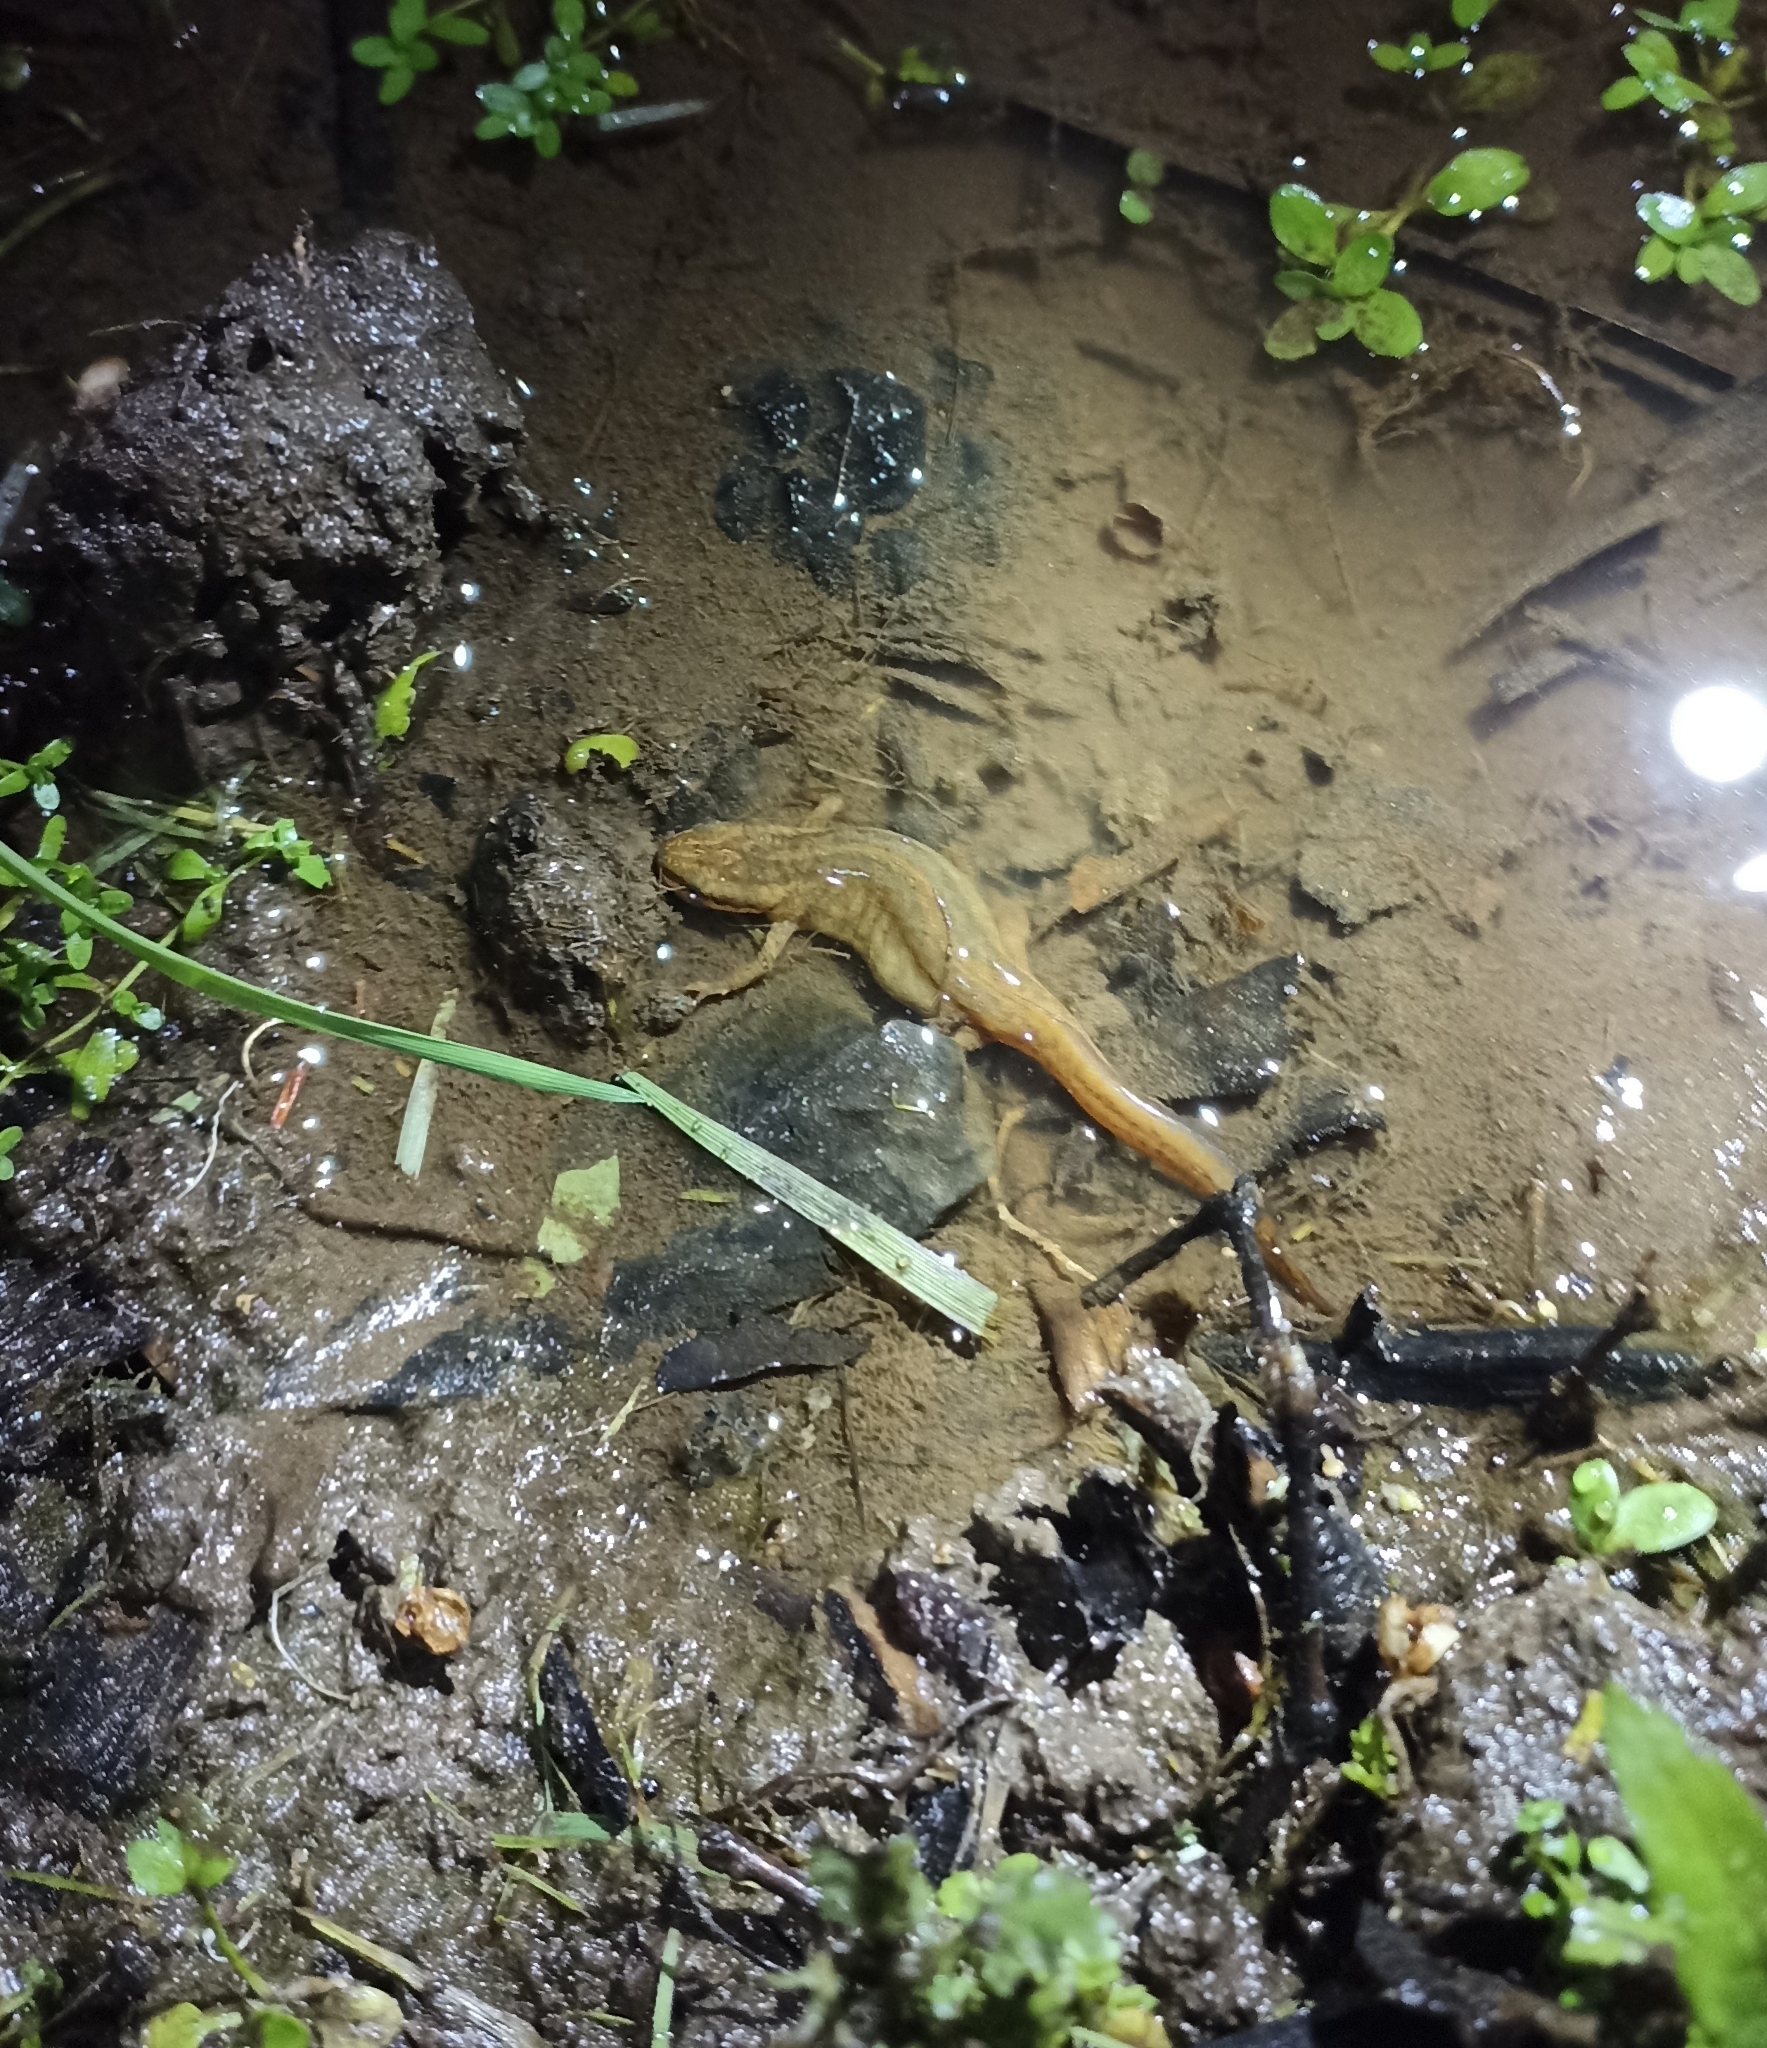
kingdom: Animalia
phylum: Chordata
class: Amphibia
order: Caudata
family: Salamandridae
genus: Lissotriton
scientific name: Lissotriton helveticus
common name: Palmate newt
